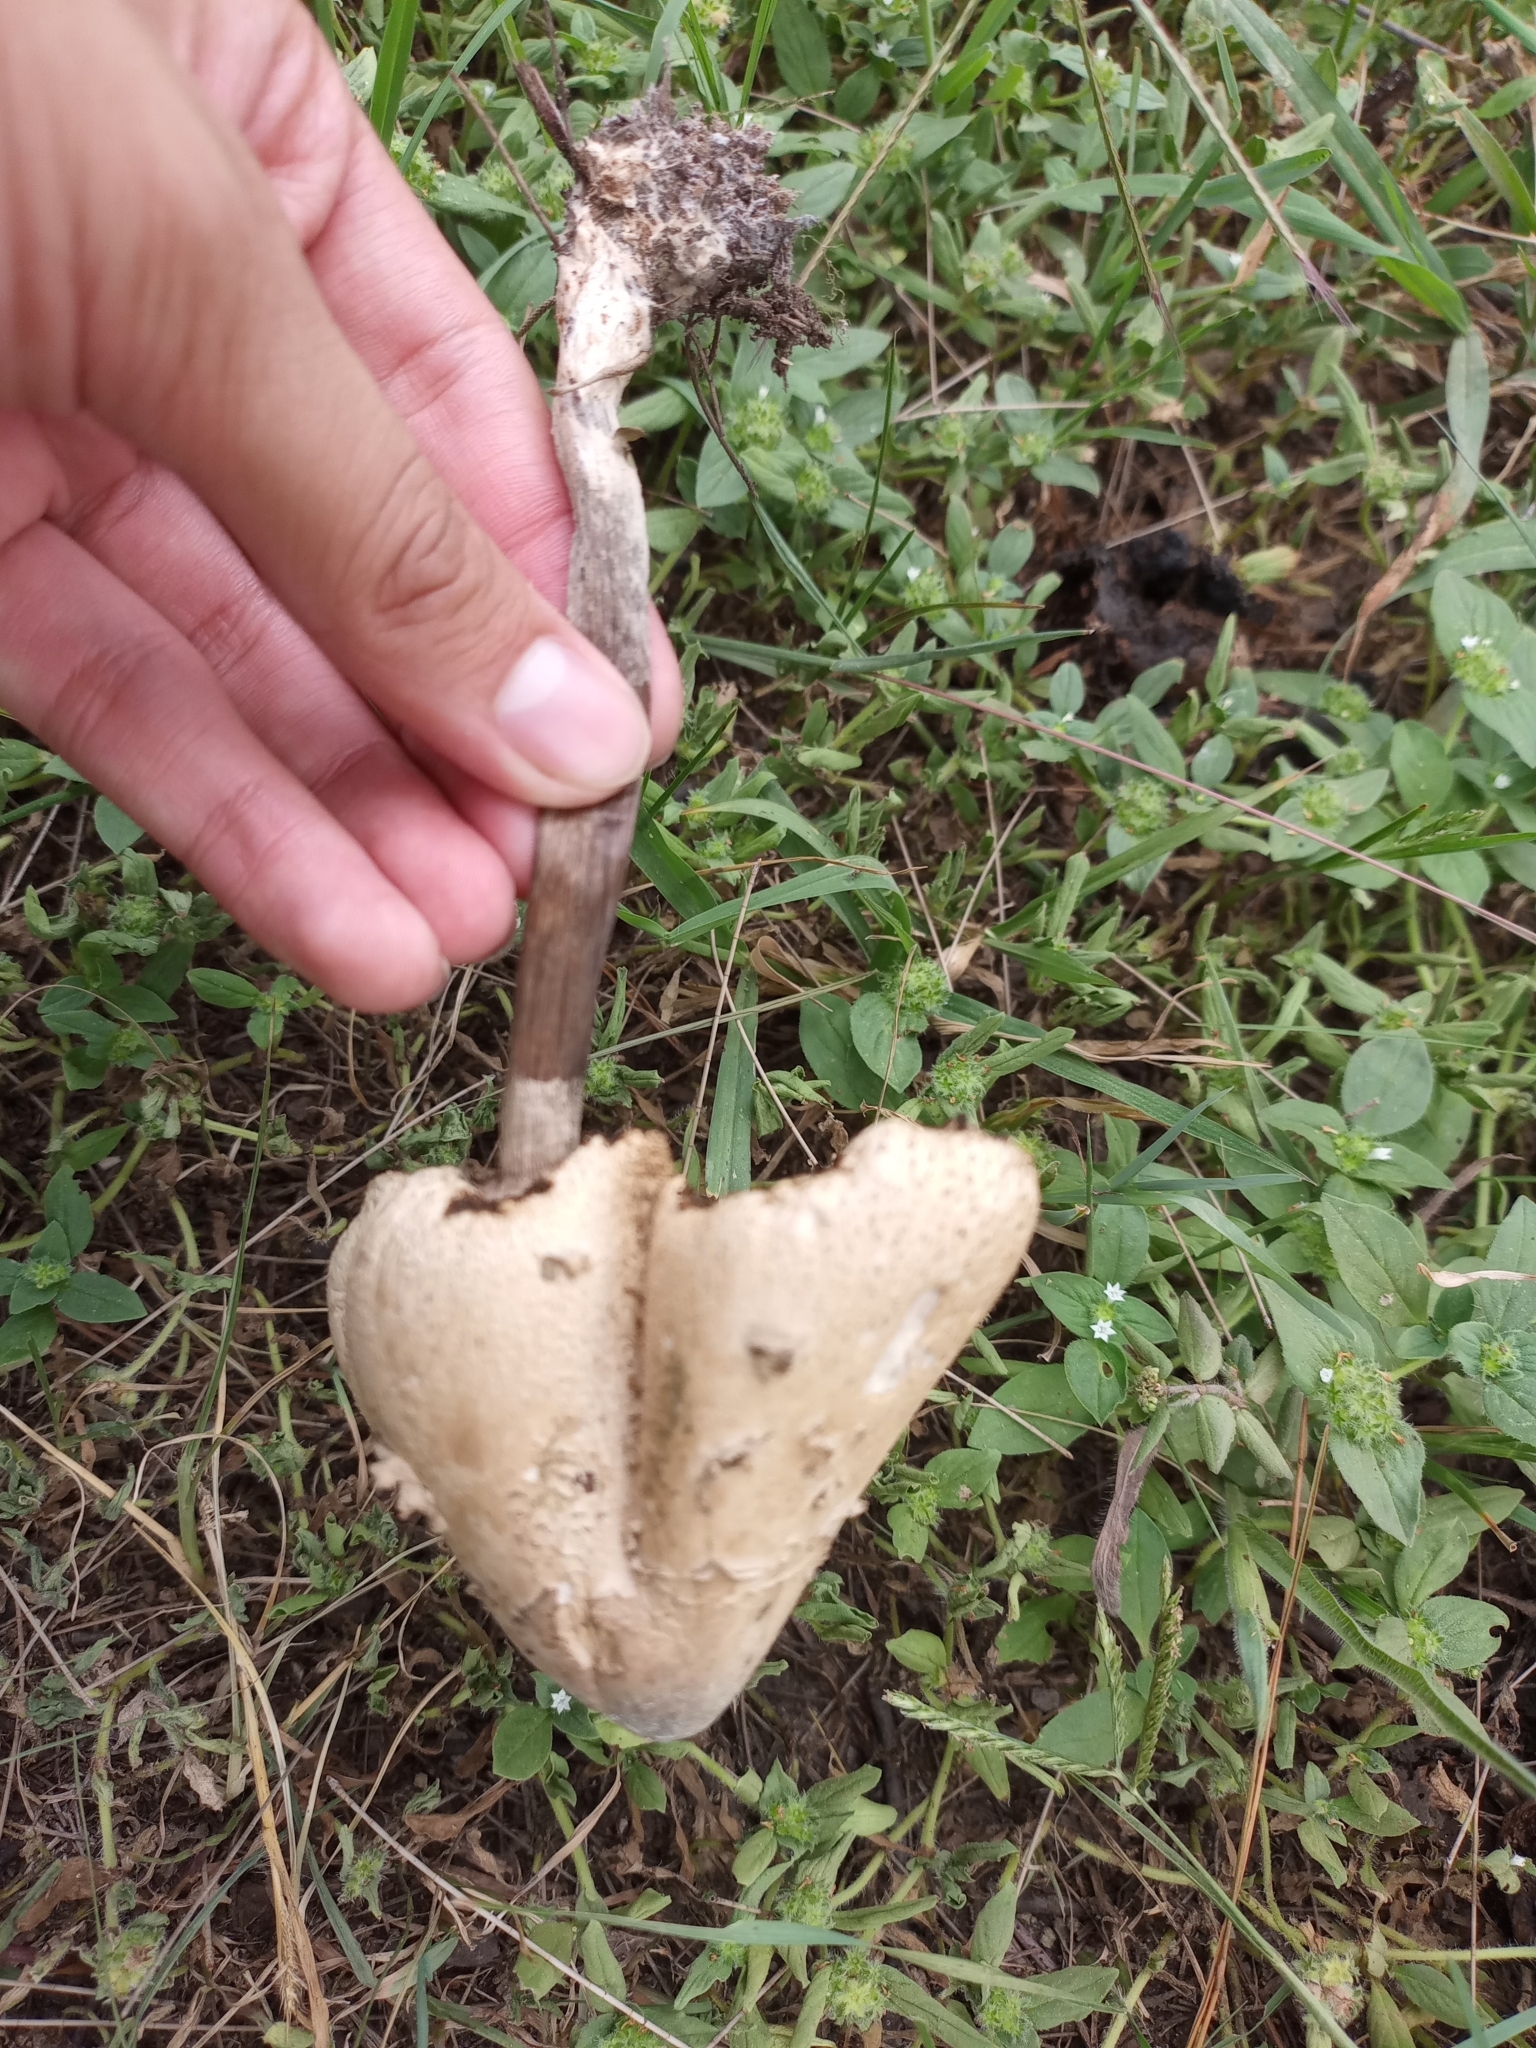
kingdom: Fungi
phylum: Basidiomycota
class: Agaricomycetes
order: Agaricales
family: Agaricaceae
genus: Chlorophyllum
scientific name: Chlorophyllum molybdites
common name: False parasol
